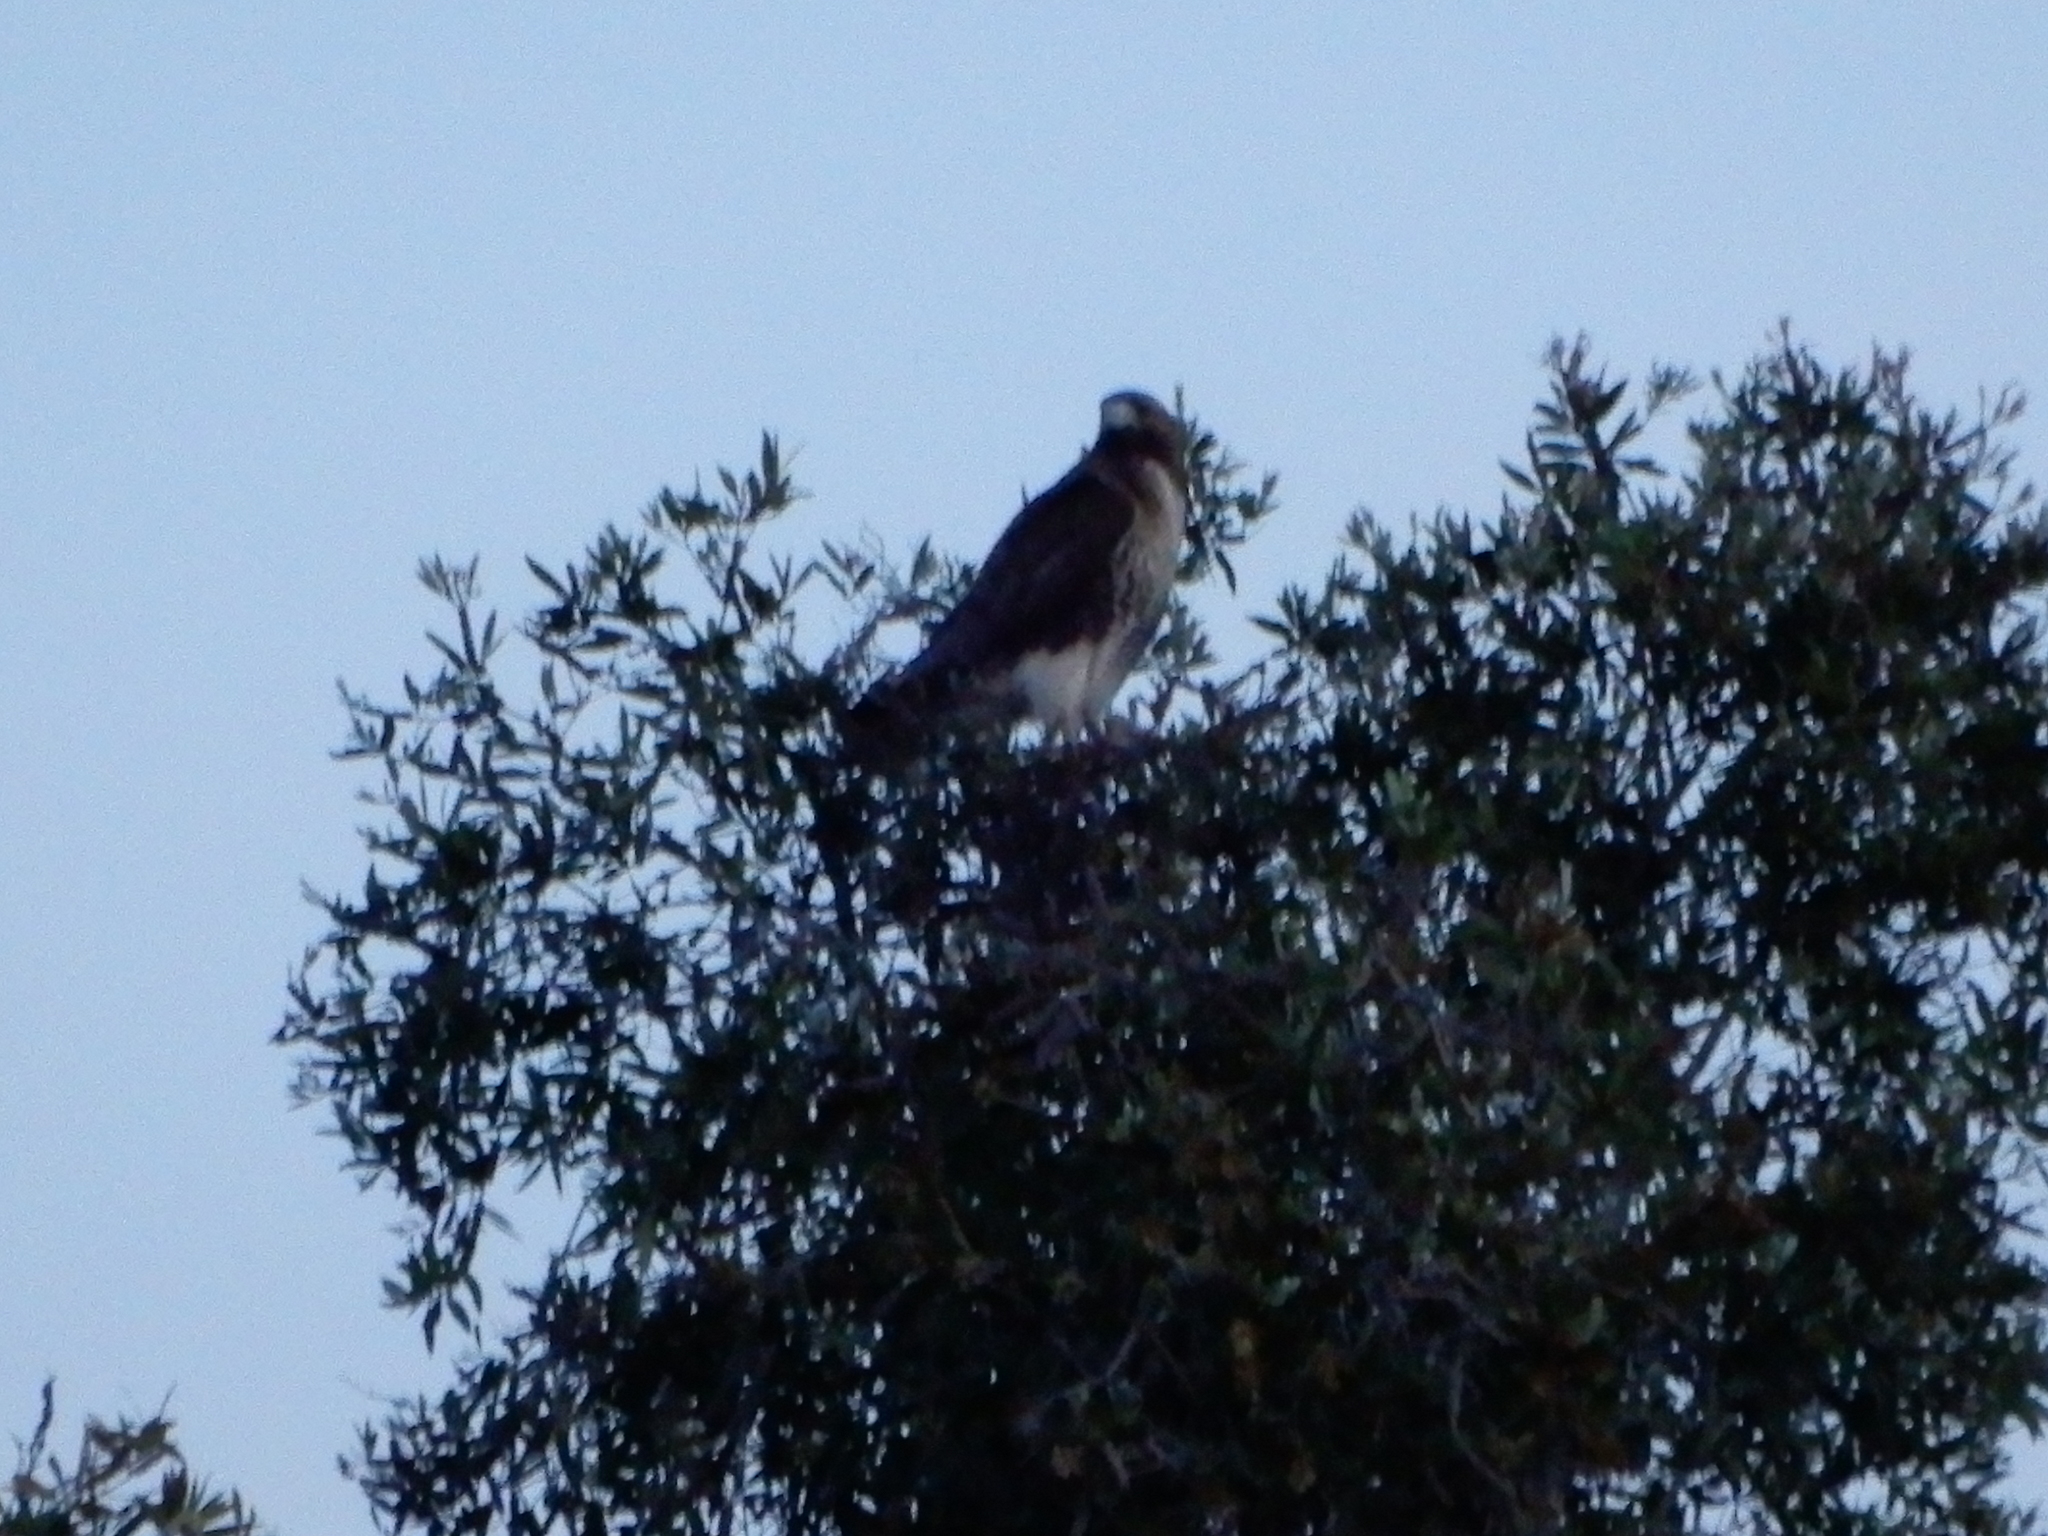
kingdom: Animalia
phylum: Chordata
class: Aves
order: Accipitriformes
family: Accipitridae
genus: Buteo
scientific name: Buteo jamaicensis
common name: Red-tailed hawk
